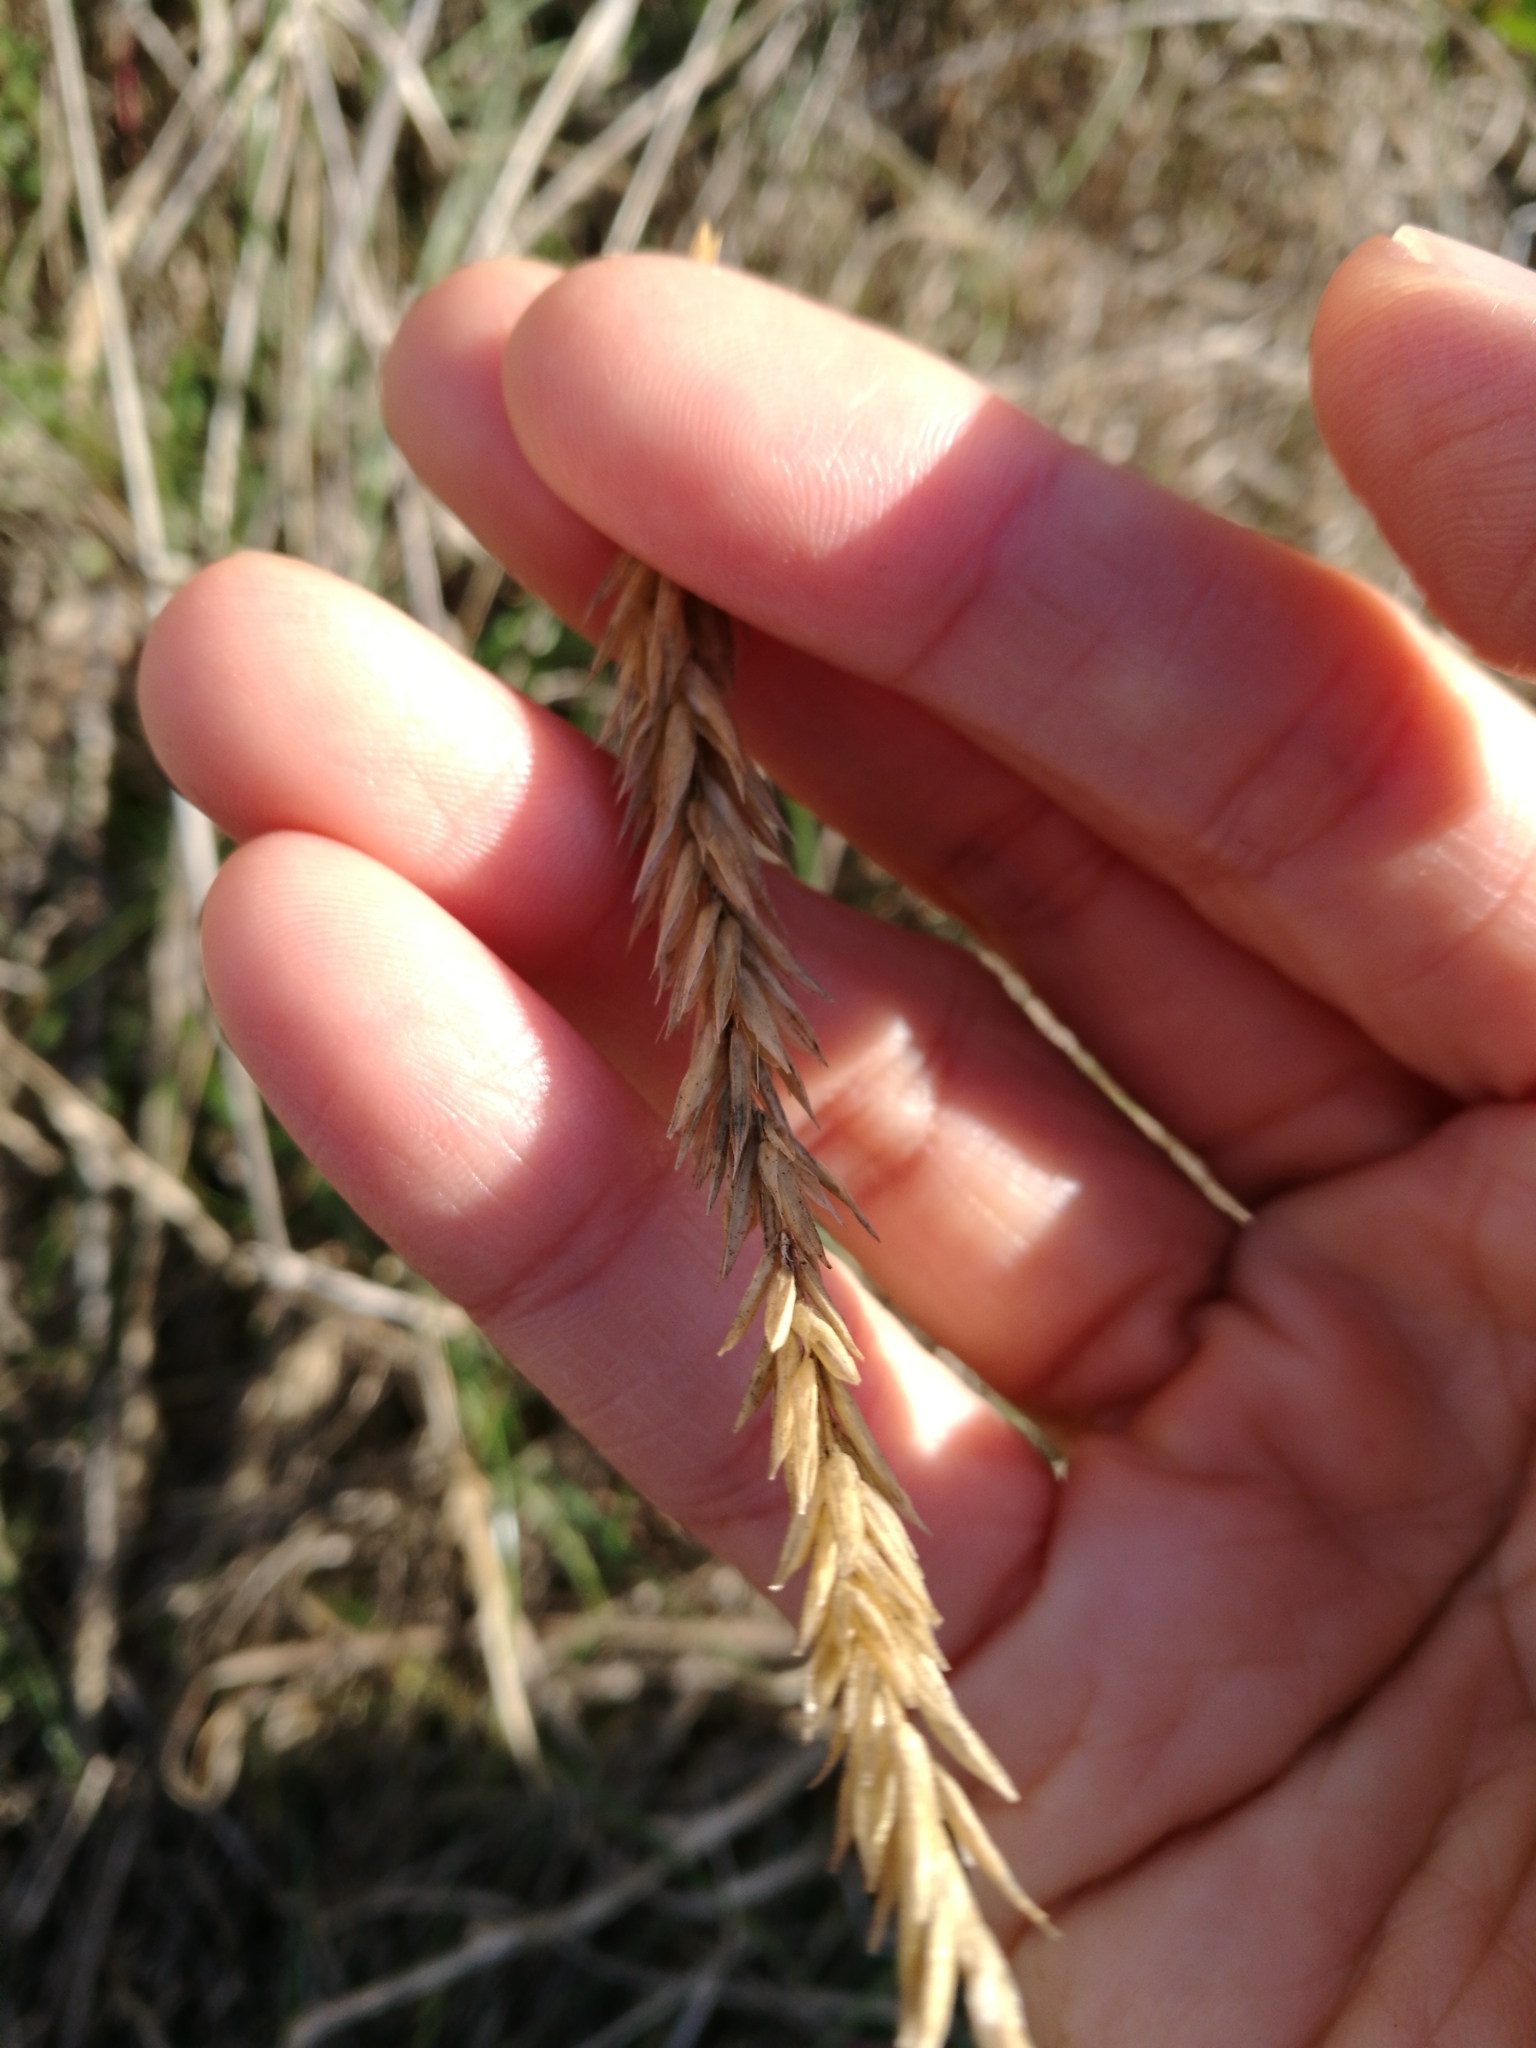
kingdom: Plantae
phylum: Tracheophyta
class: Liliopsida
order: Poales
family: Poaceae
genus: Anthoxanthum
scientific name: Anthoxanthum odoratum
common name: Sweet vernalgrass
